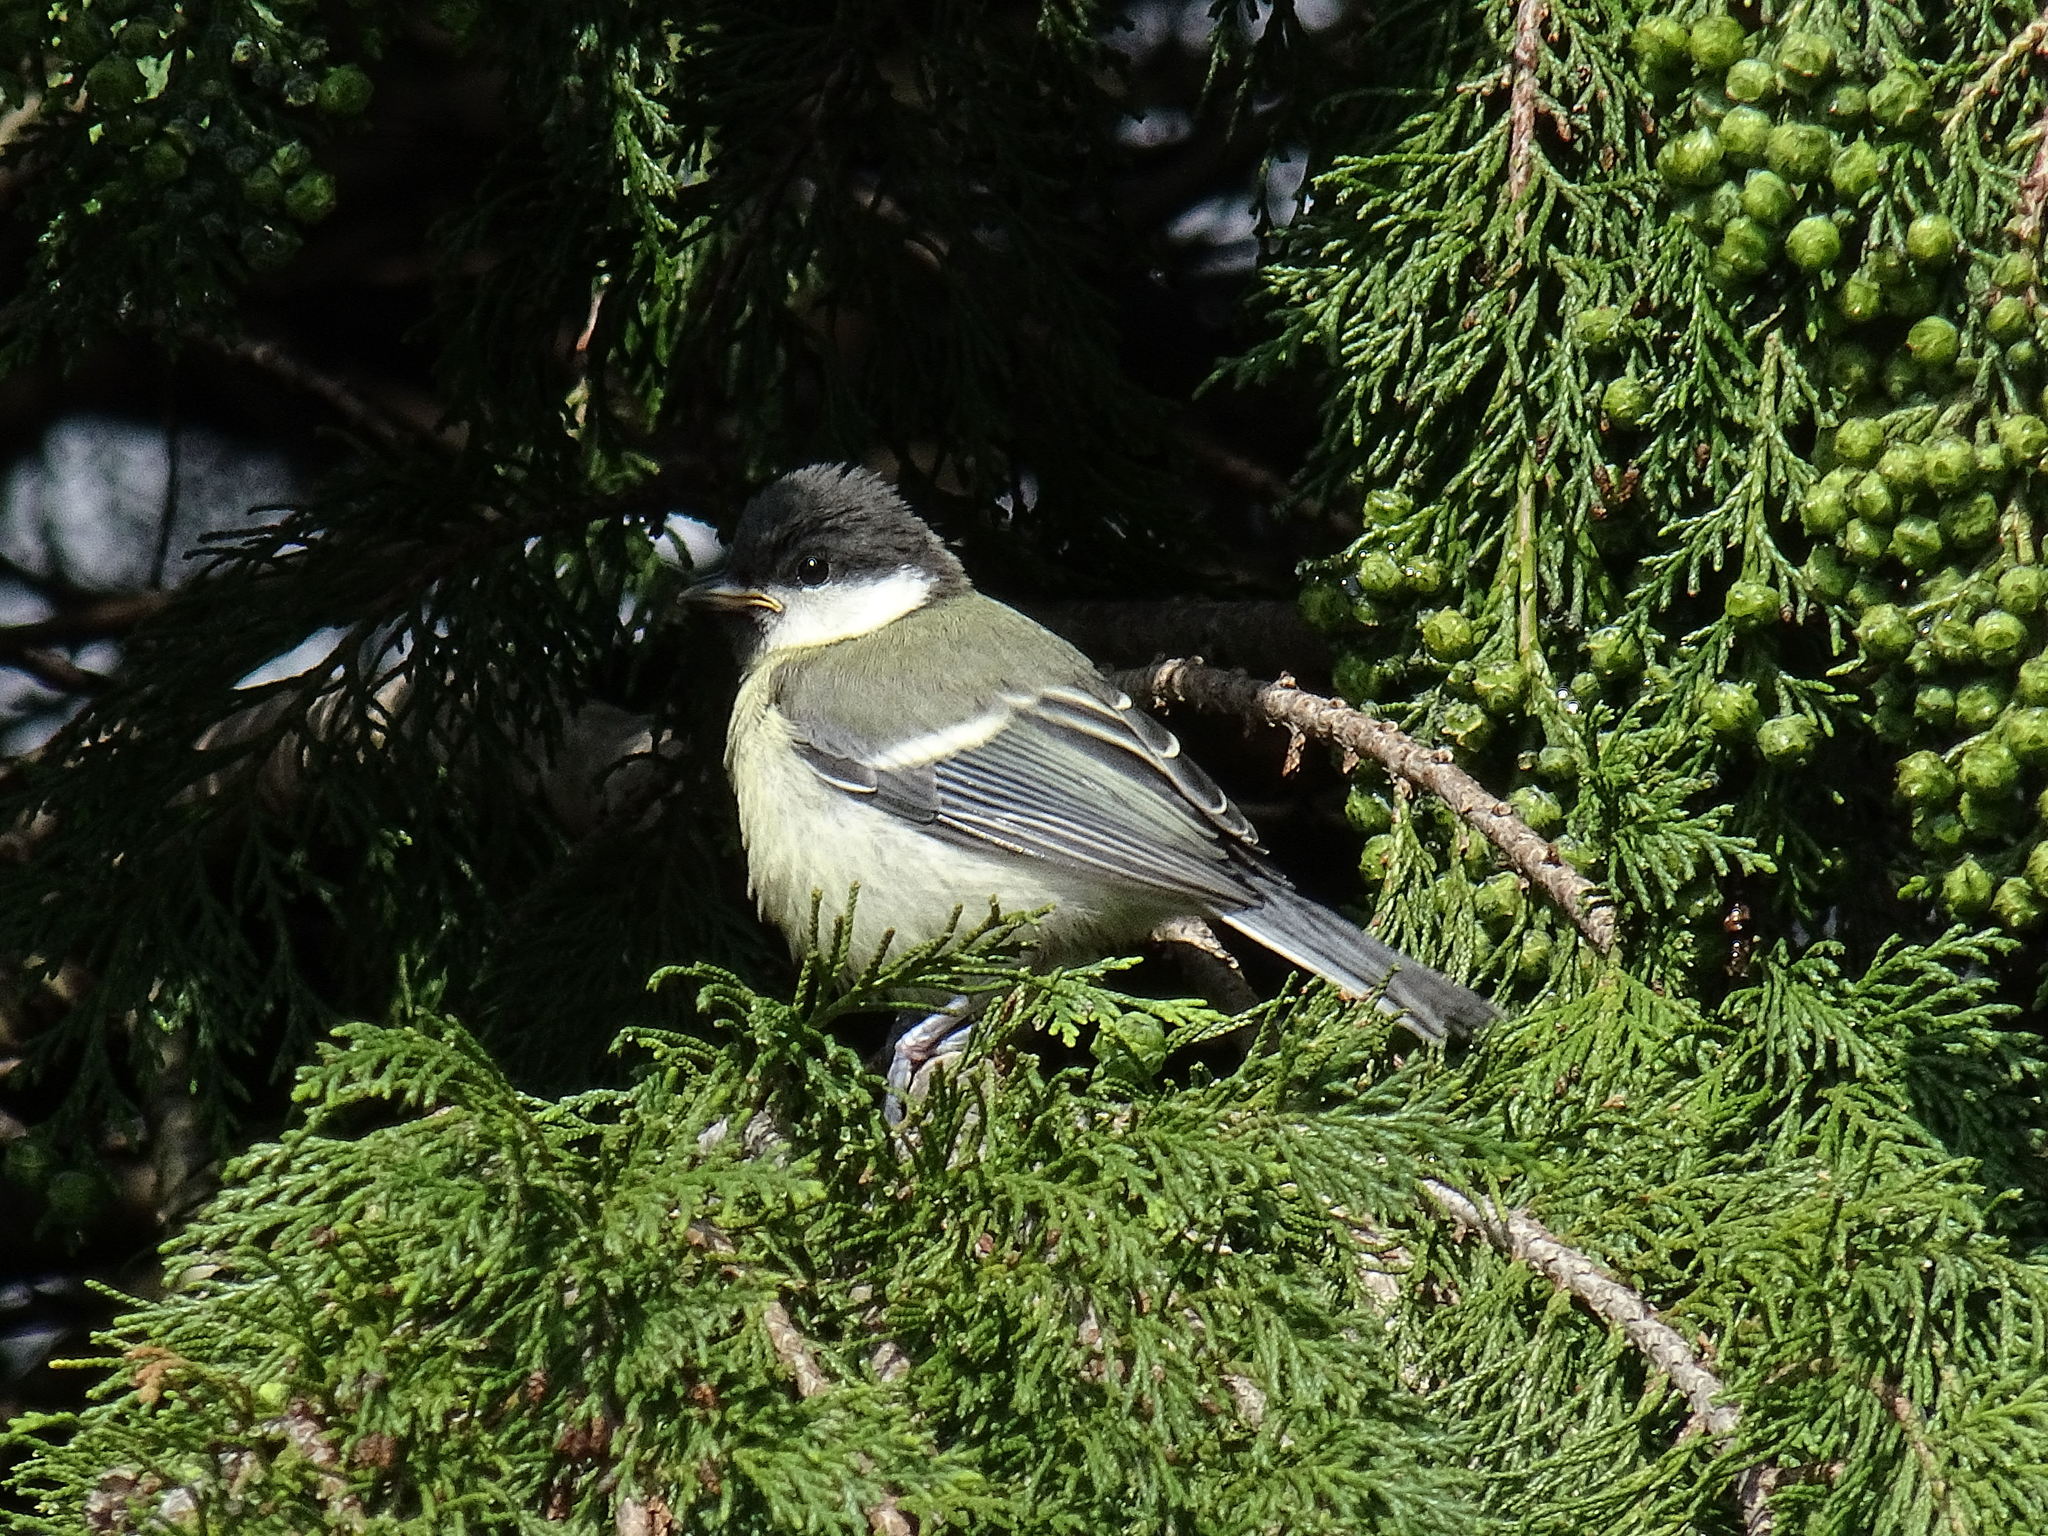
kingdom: Animalia
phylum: Chordata
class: Aves
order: Passeriformes
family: Paridae
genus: Parus
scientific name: Parus major
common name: Great tit
